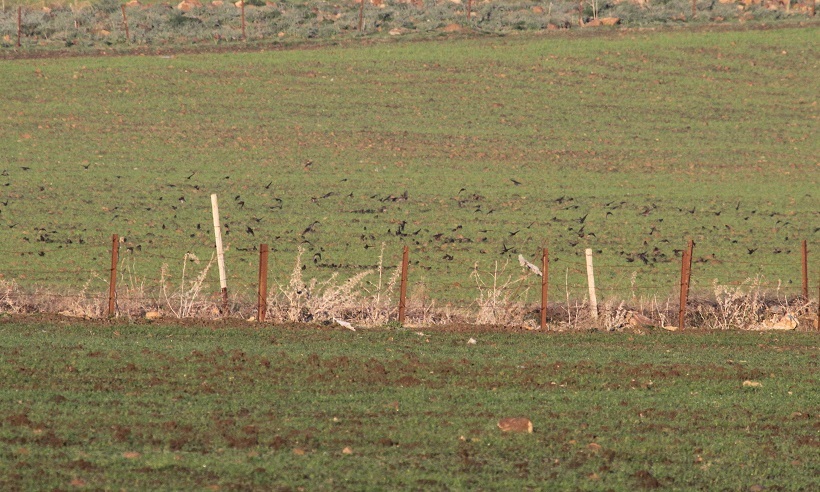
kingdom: Animalia
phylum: Chordata
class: Aves
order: Passeriformes
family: Sturnidae
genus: Sturnus
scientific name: Sturnus vulgaris
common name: Common starling
